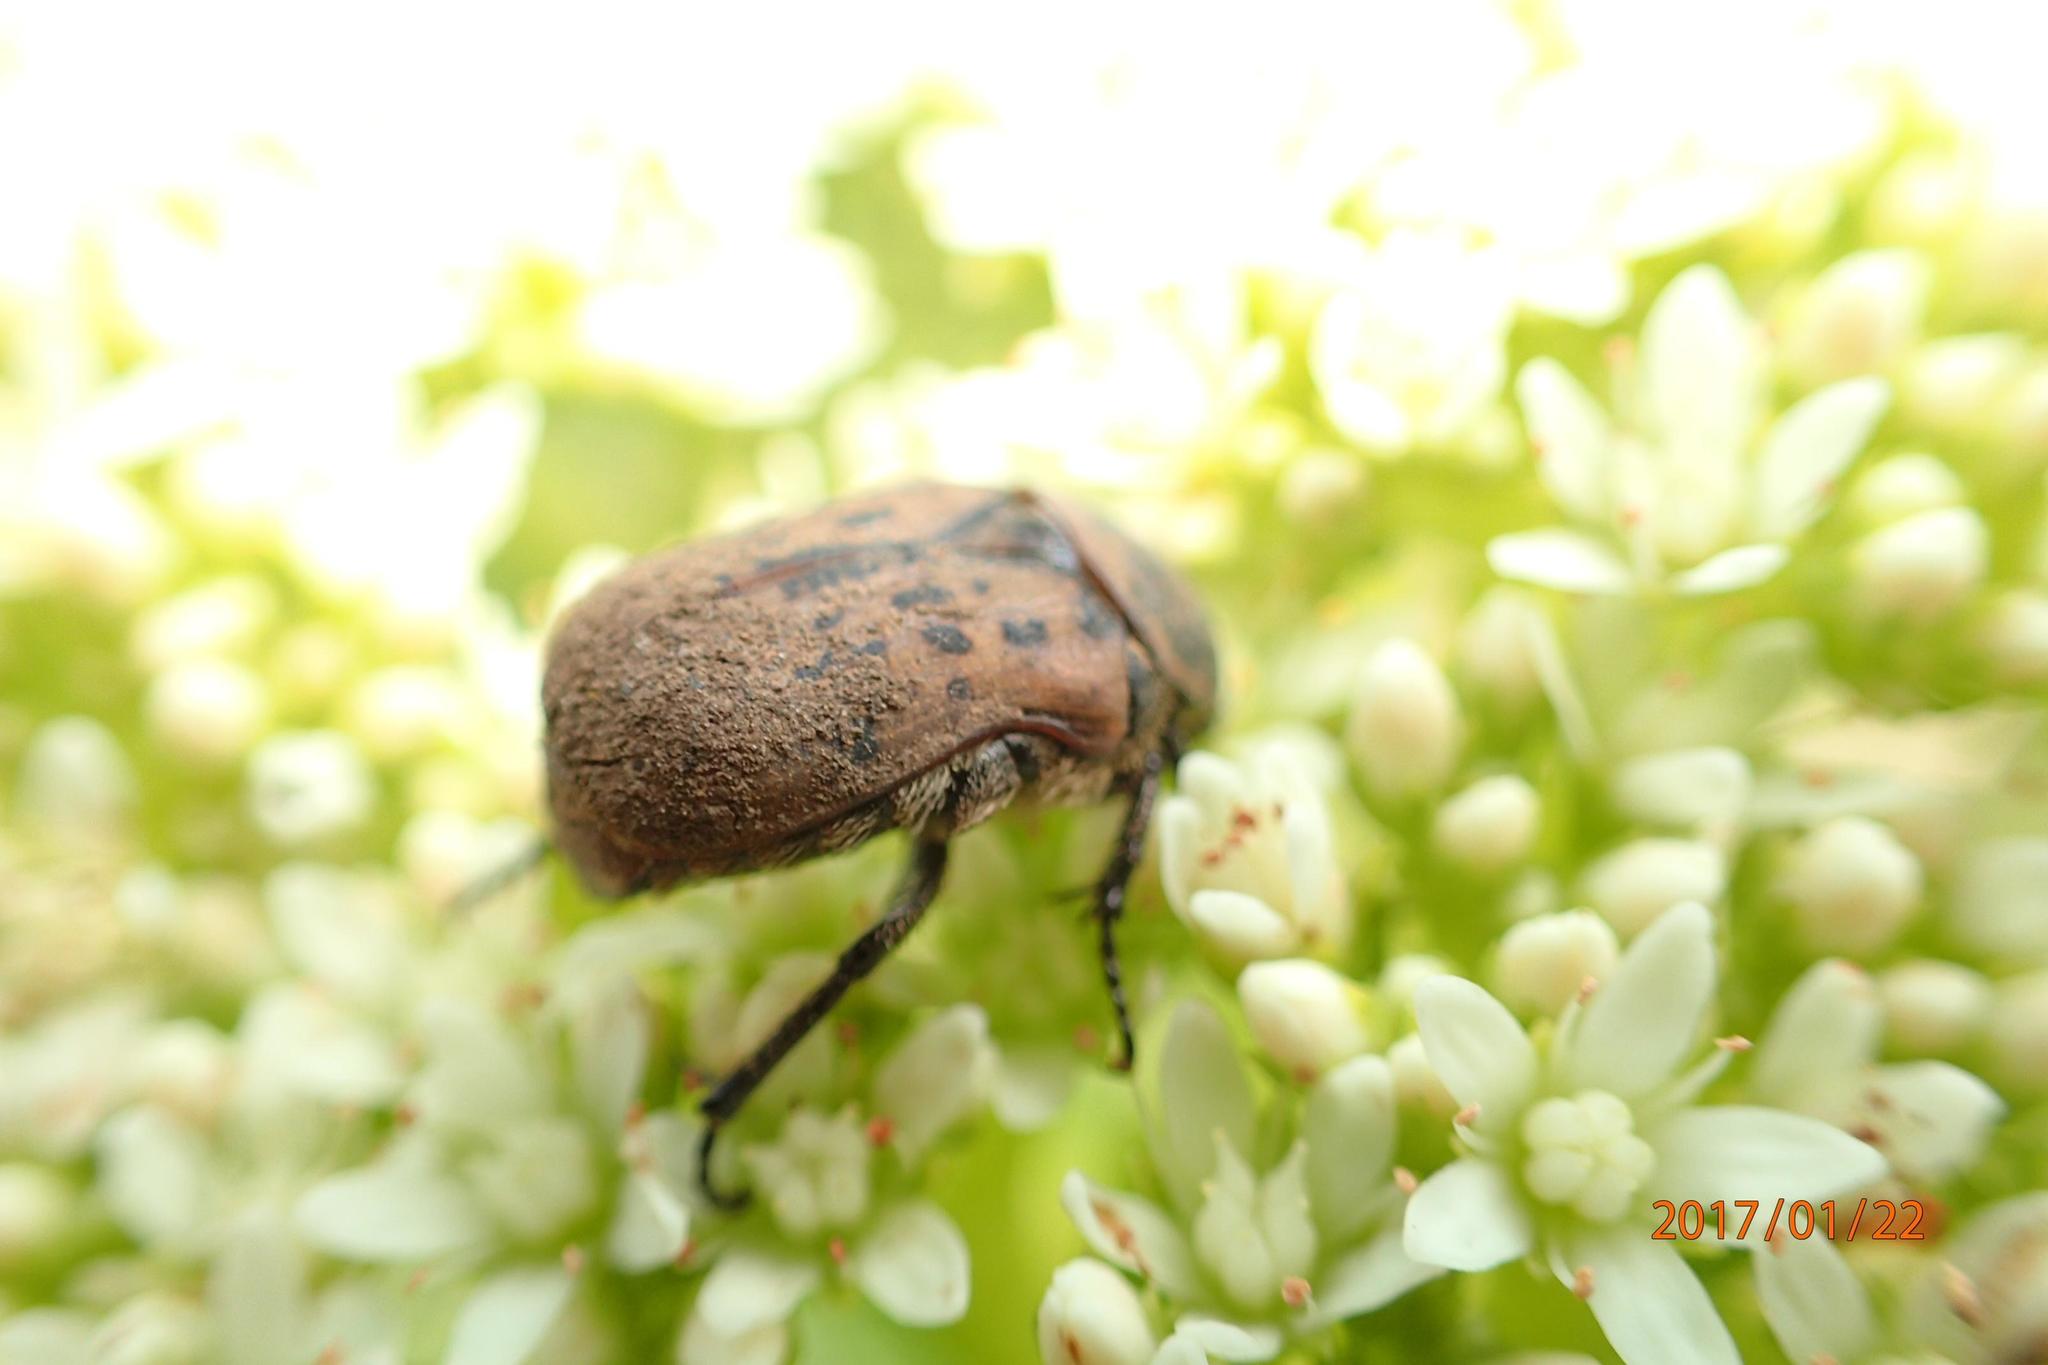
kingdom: Plantae
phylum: Tracheophyta
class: Magnoliopsida
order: Saxifragales
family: Crassulaceae
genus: Crassula
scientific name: Crassula vaginata
